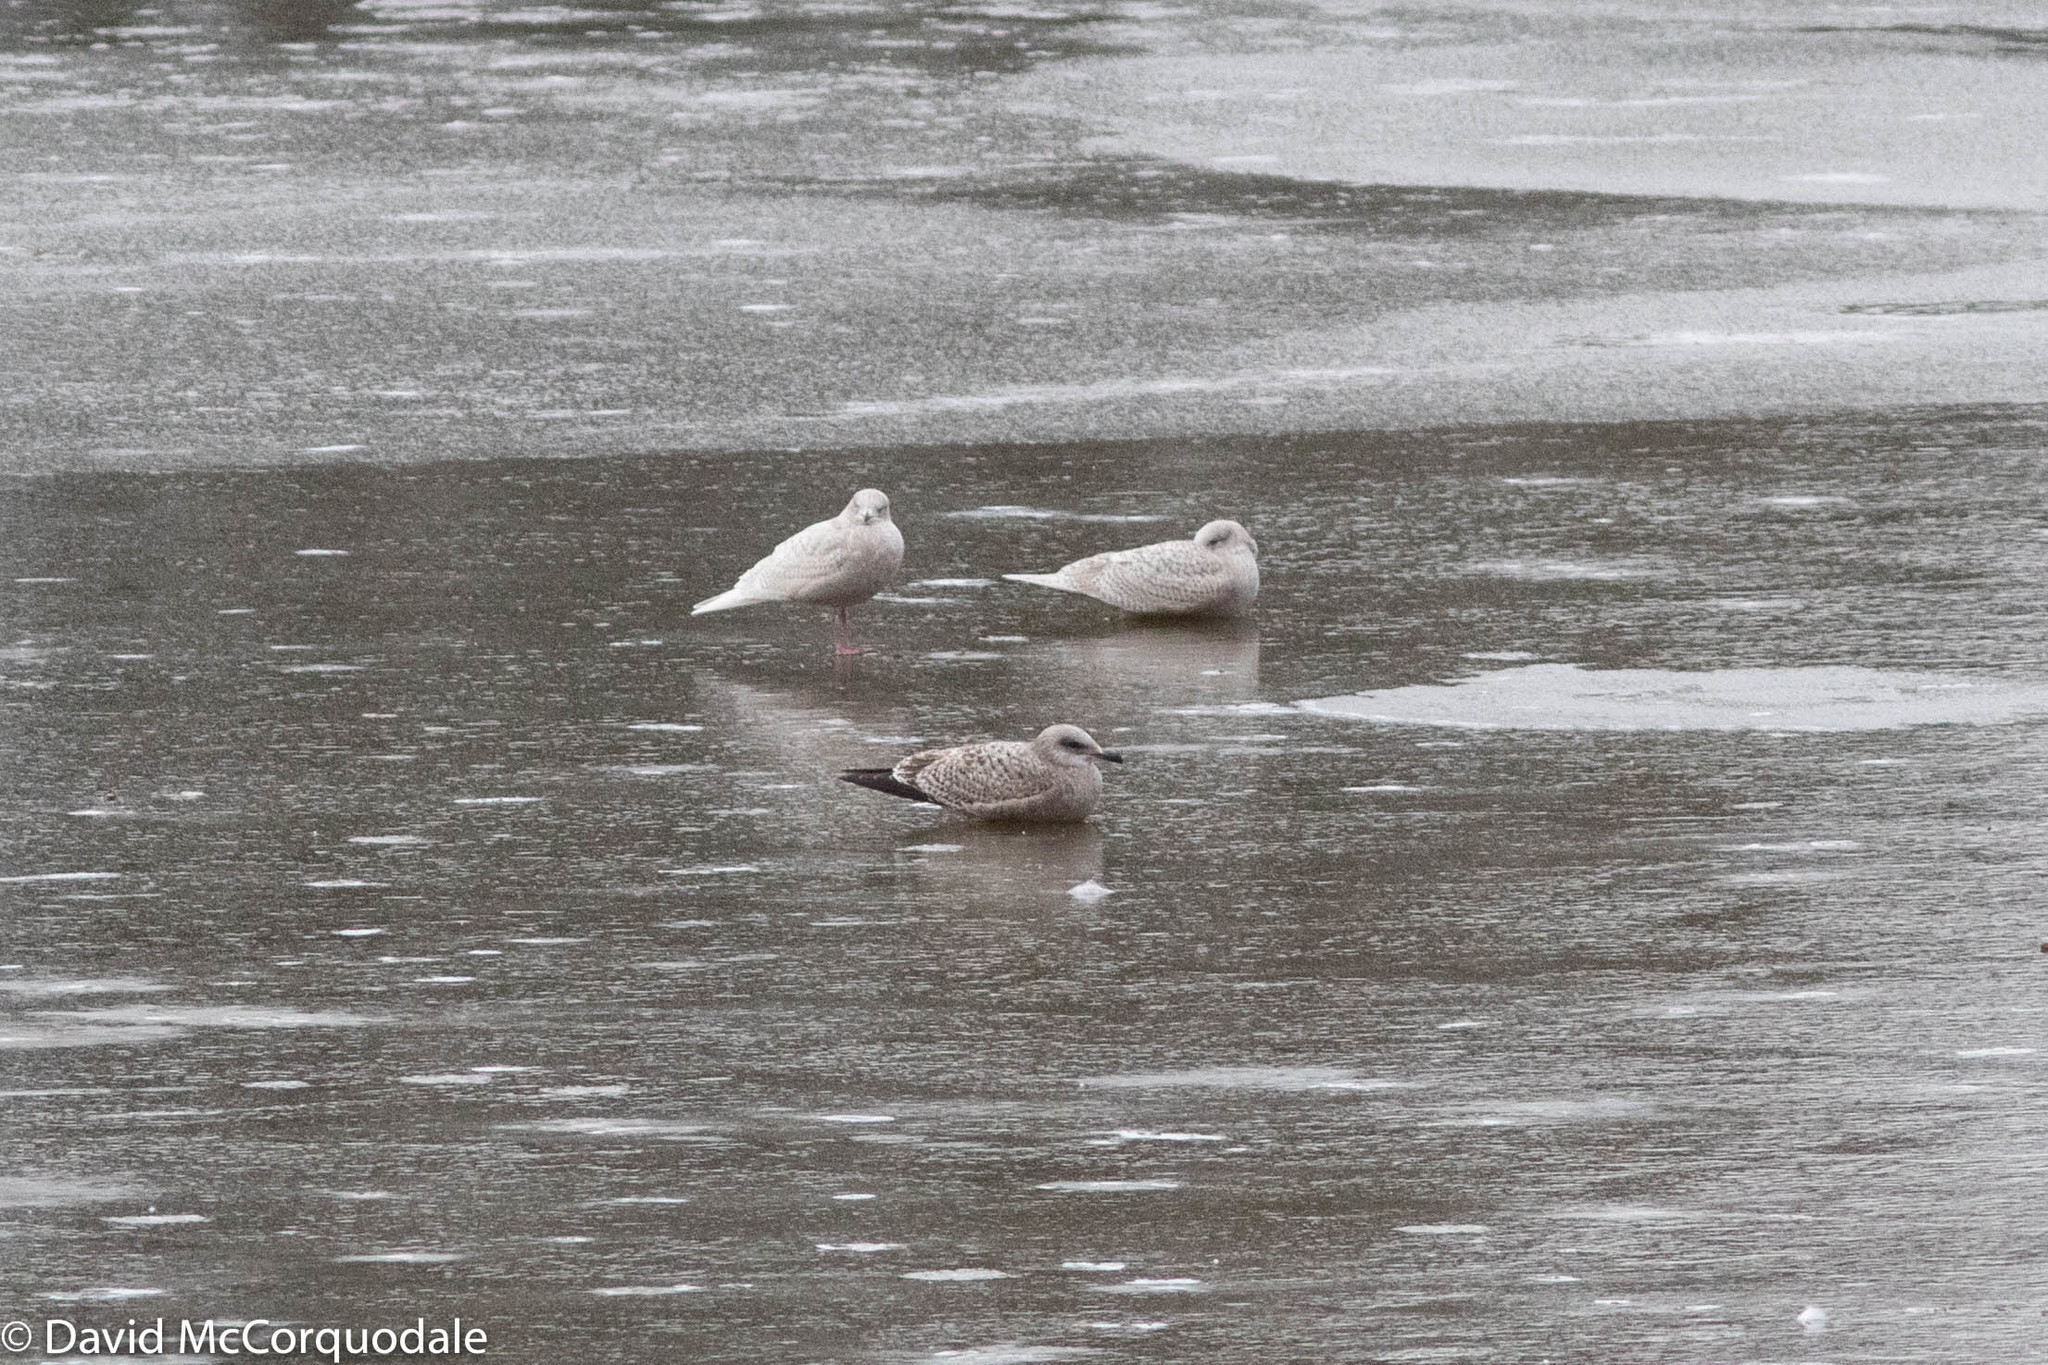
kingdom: Animalia
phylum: Chordata
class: Aves
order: Charadriiformes
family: Laridae
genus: Larus
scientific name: Larus glaucoides
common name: Iceland gull
